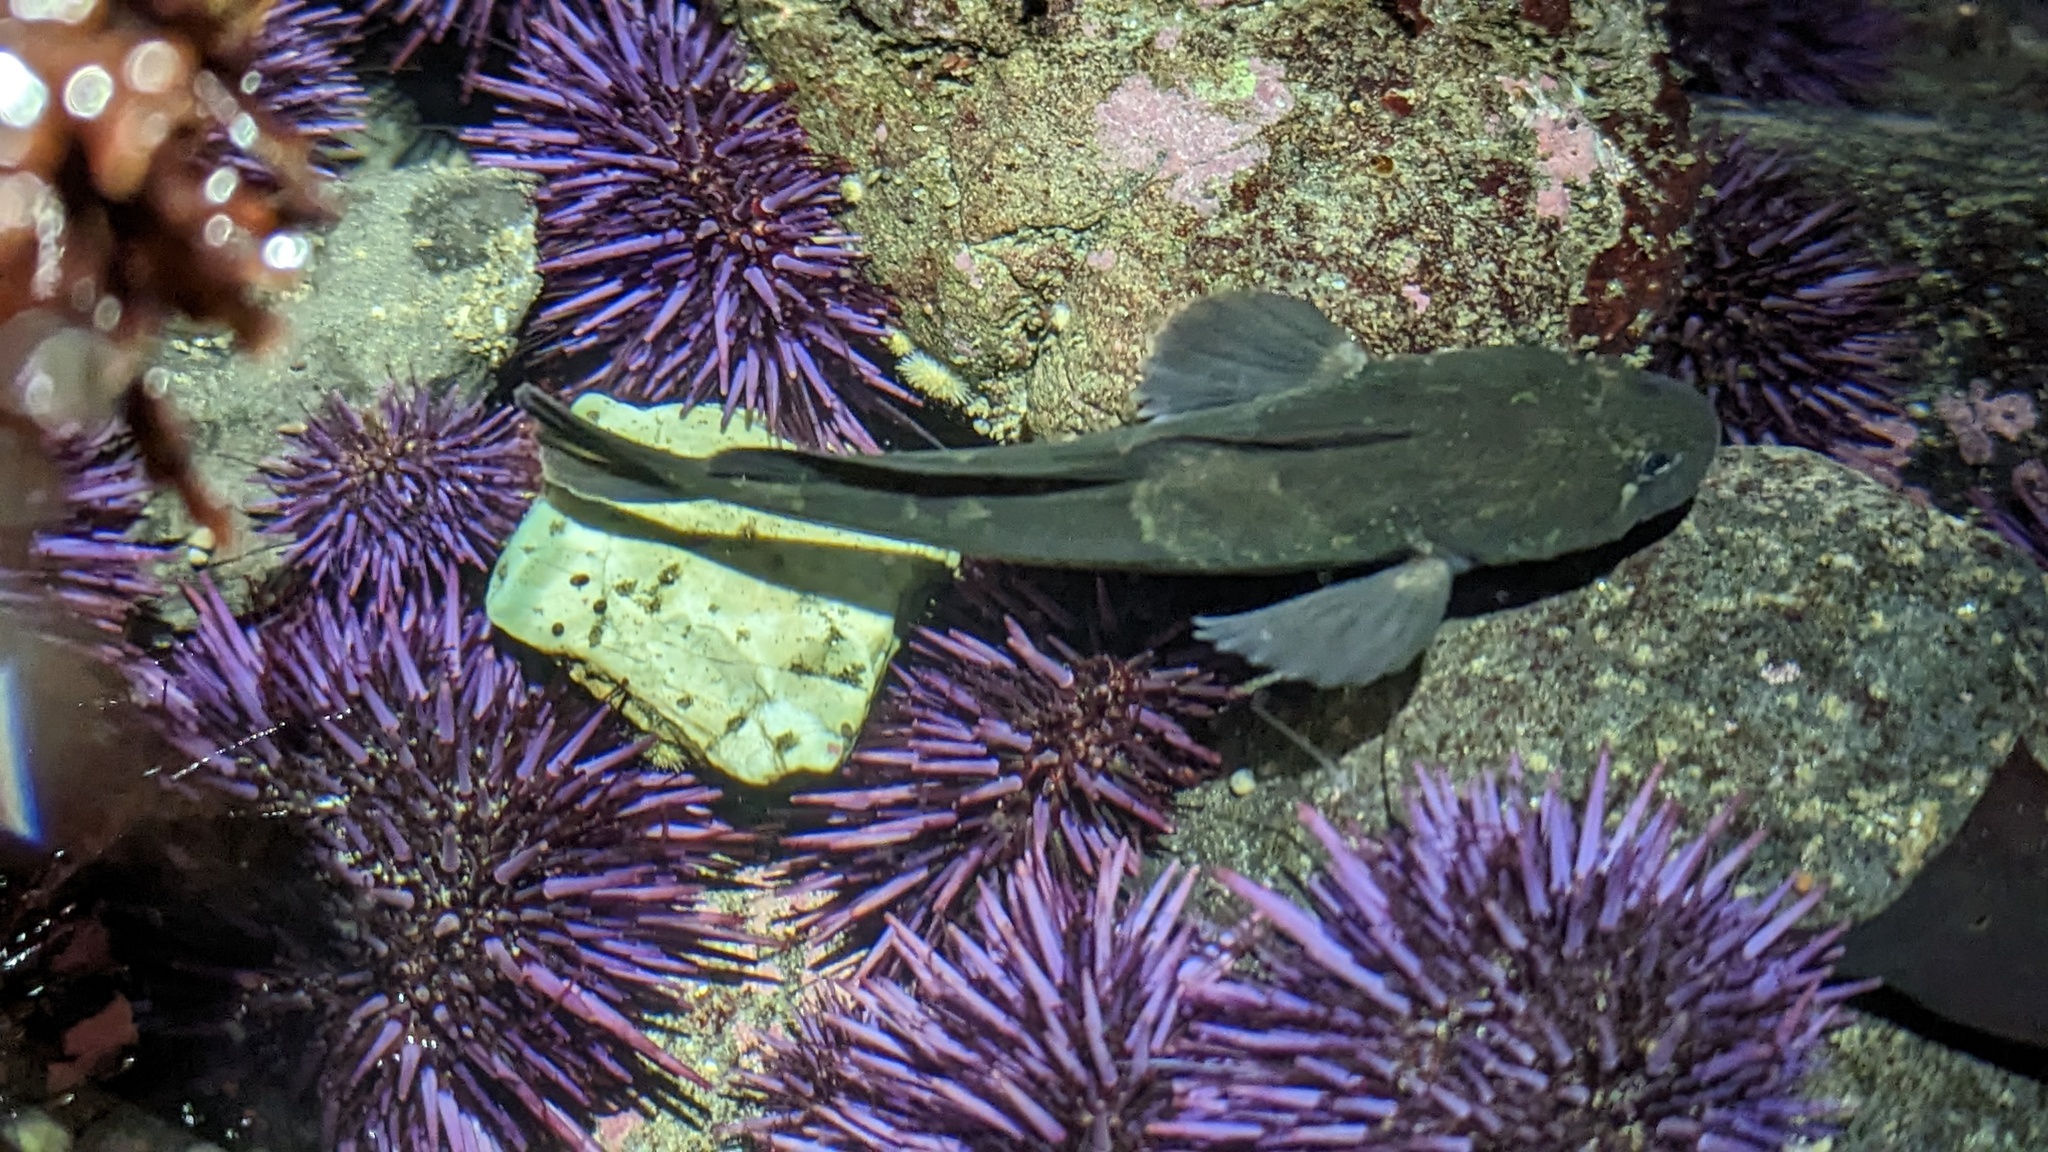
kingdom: Animalia
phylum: Chordata
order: Scorpaeniformes
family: Cottidae
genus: Ascelichthys
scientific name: Ascelichthys rhodorus
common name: Rosylip sculpin
